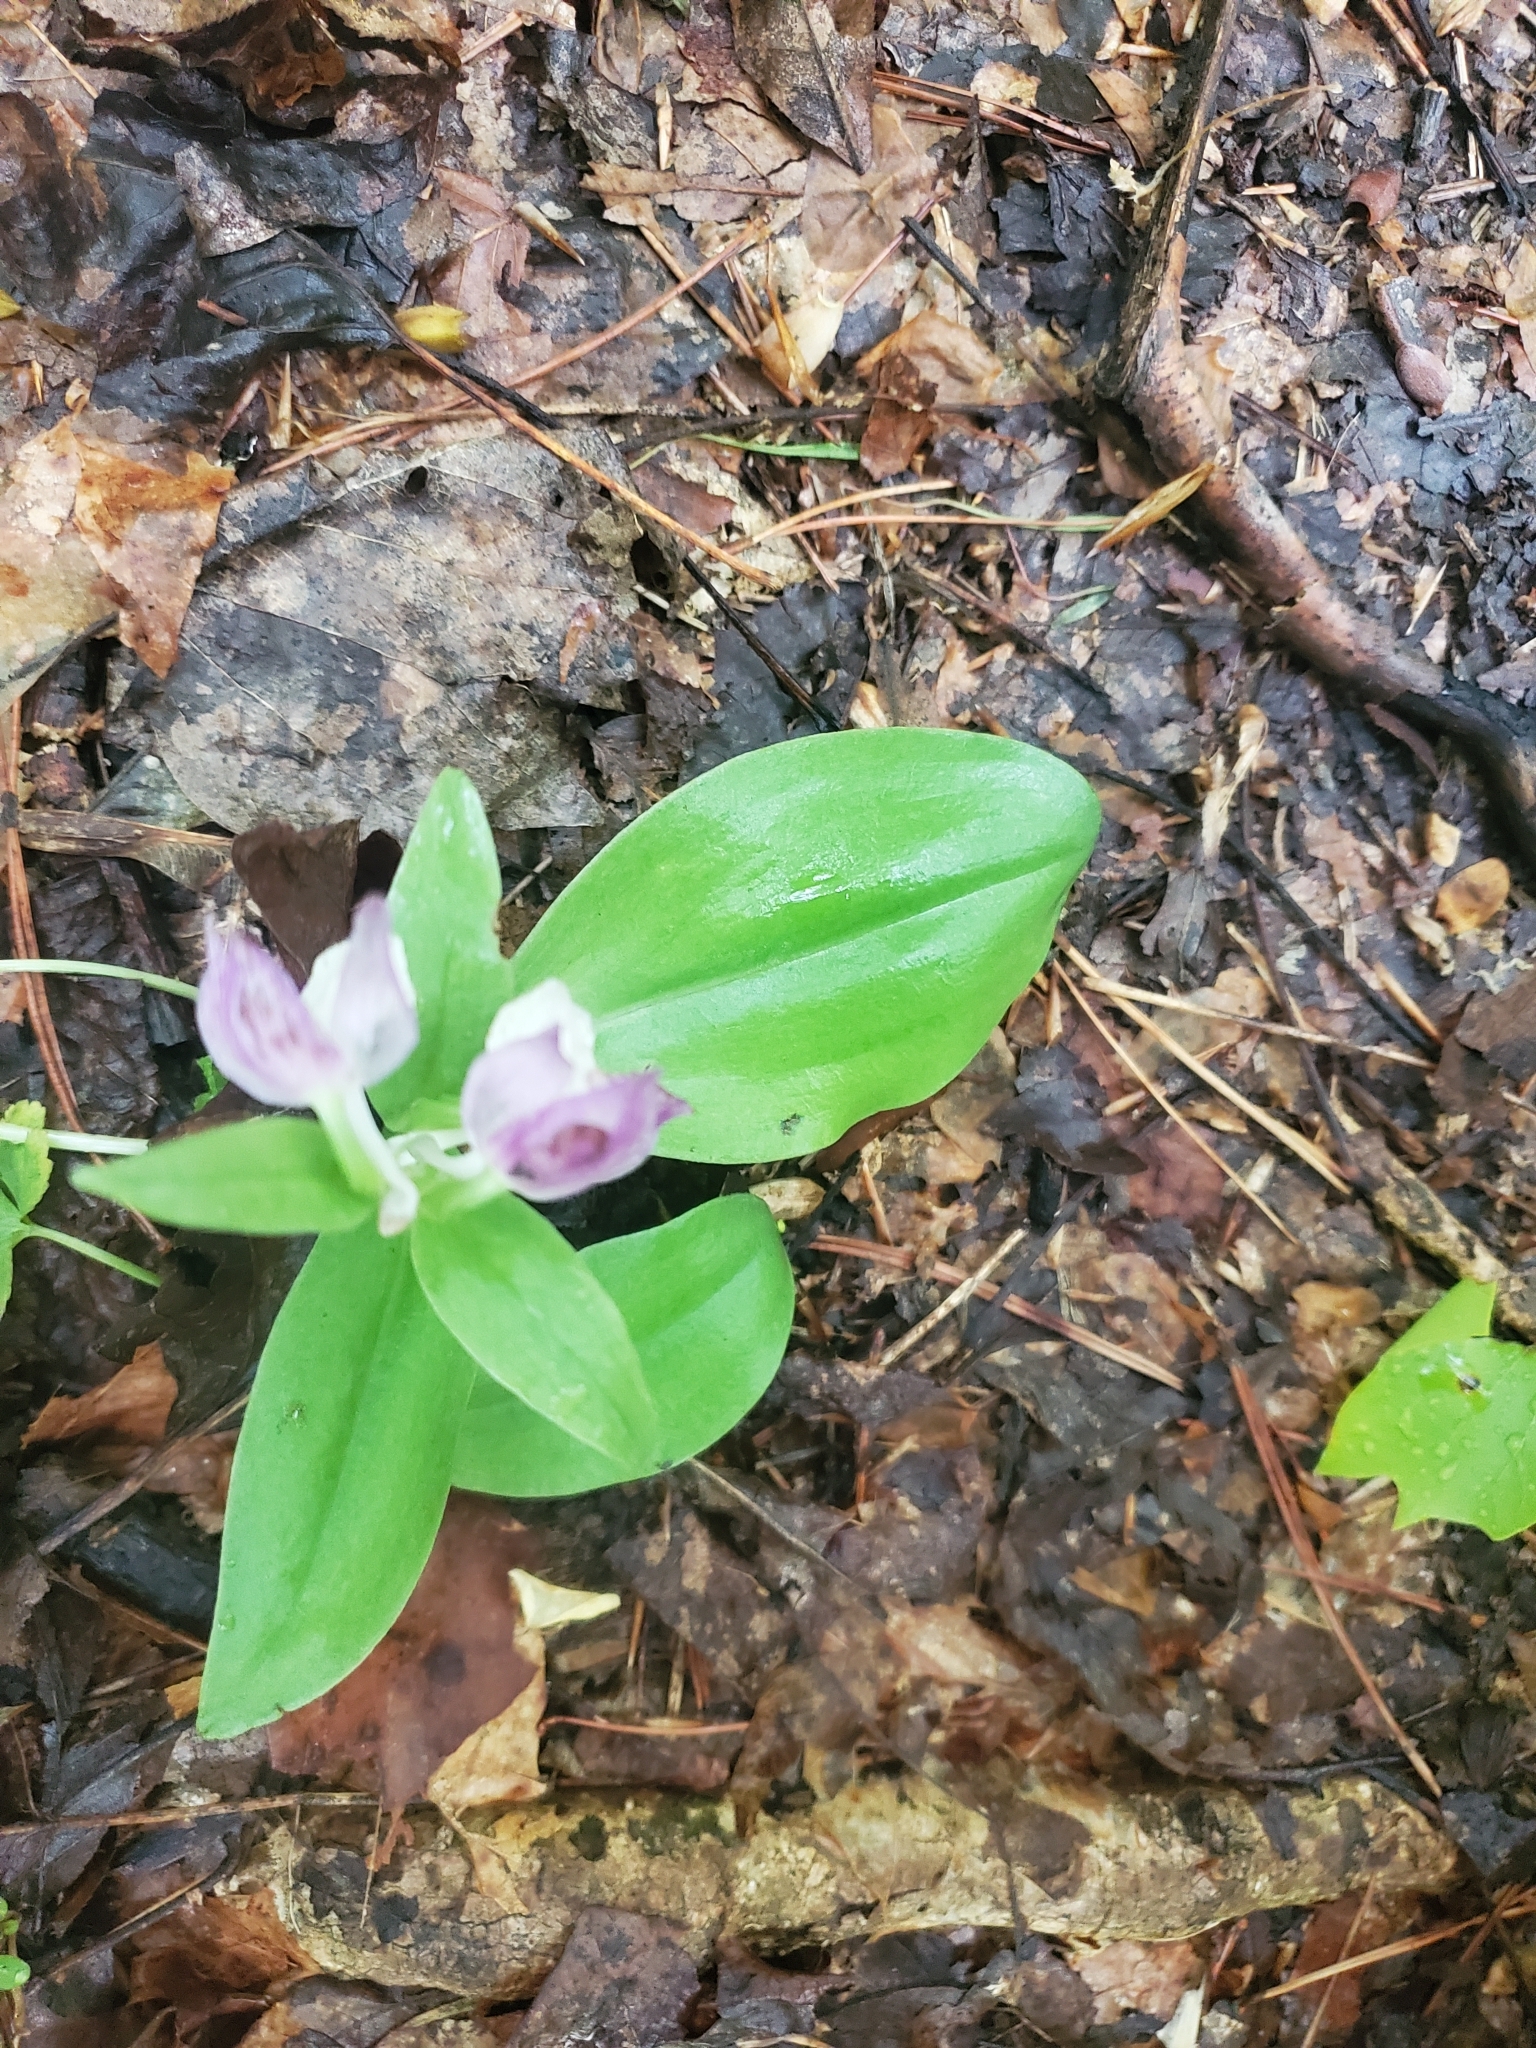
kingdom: Plantae
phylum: Tracheophyta
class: Liliopsida
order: Asparagales
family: Orchidaceae
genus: Galearis
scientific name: Galearis spectabilis
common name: Purple-hooded orchis
